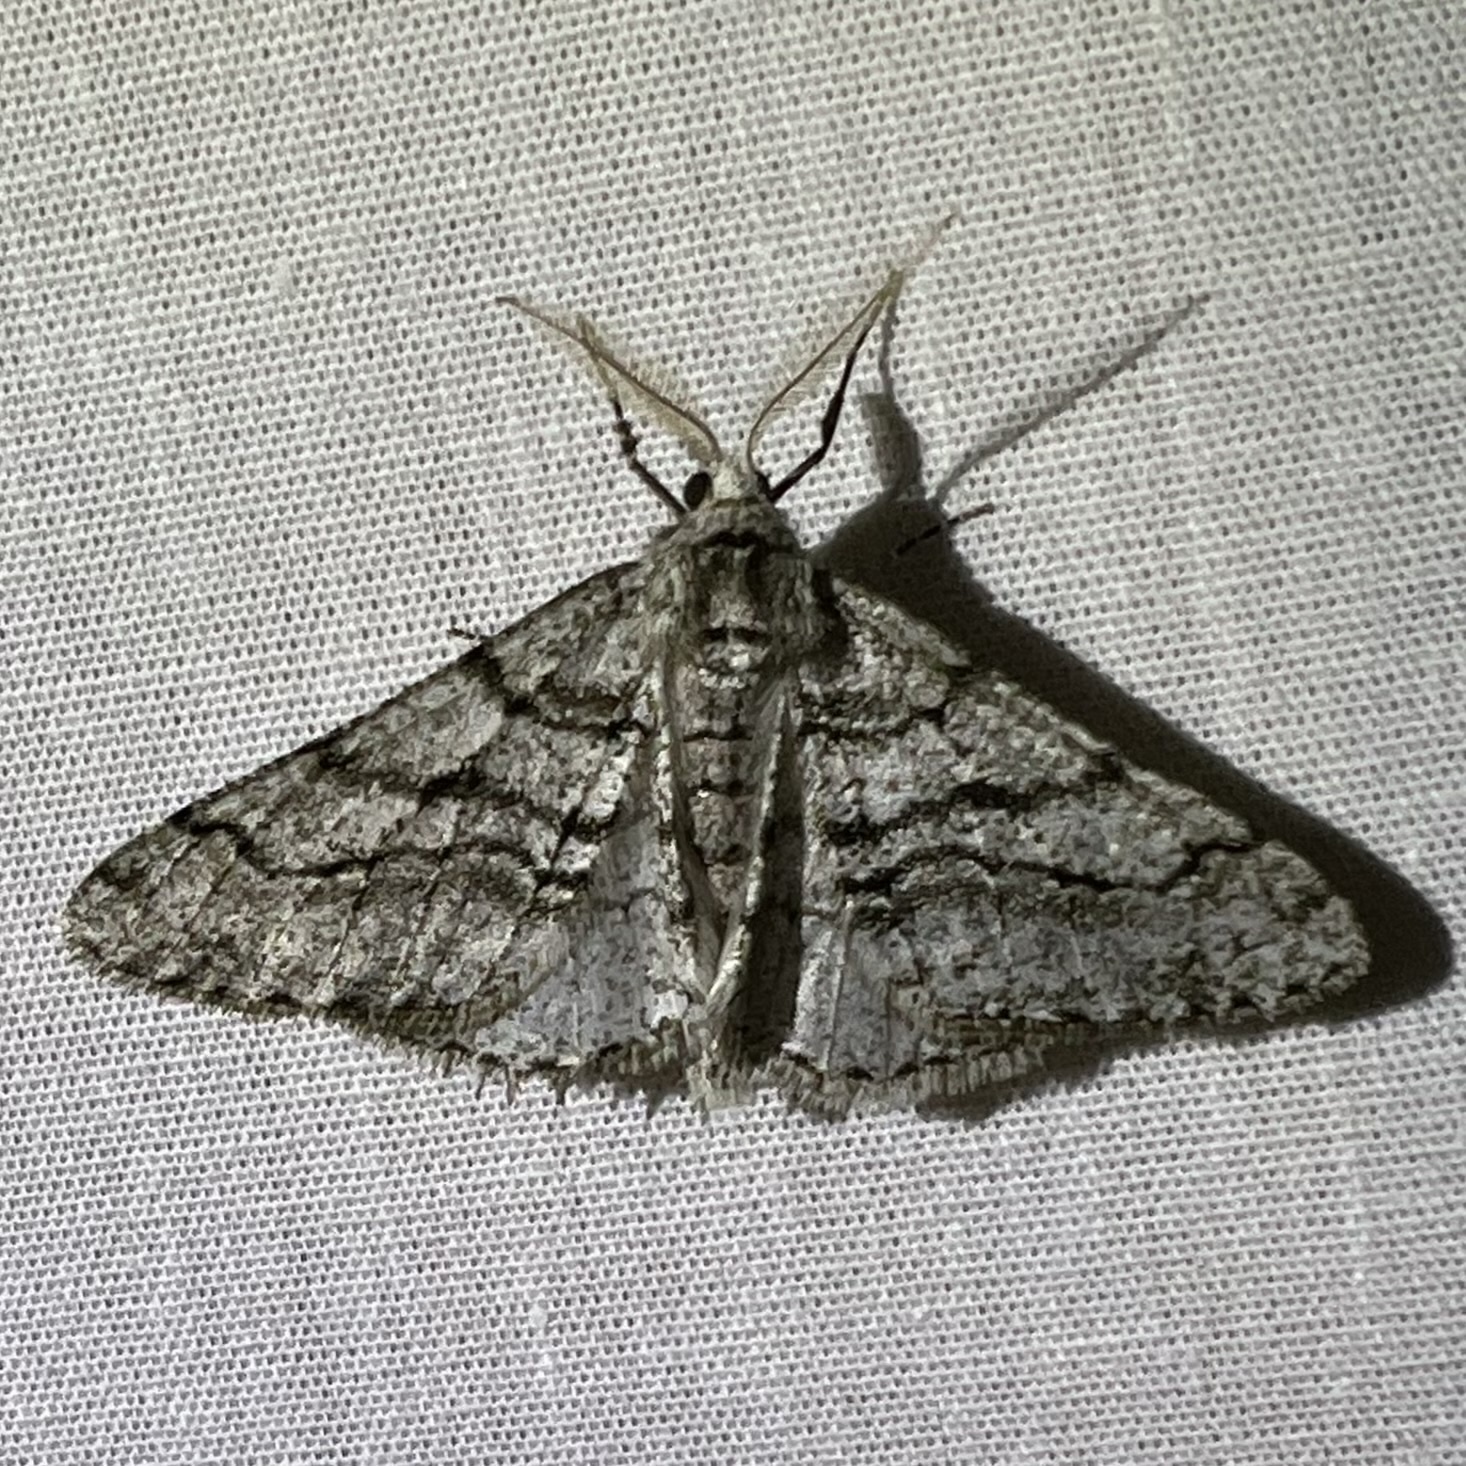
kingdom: Animalia
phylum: Arthropoda
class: Insecta
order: Lepidoptera
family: Geometridae
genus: Phigalia
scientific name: Phigalia titea
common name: Spiny looper
